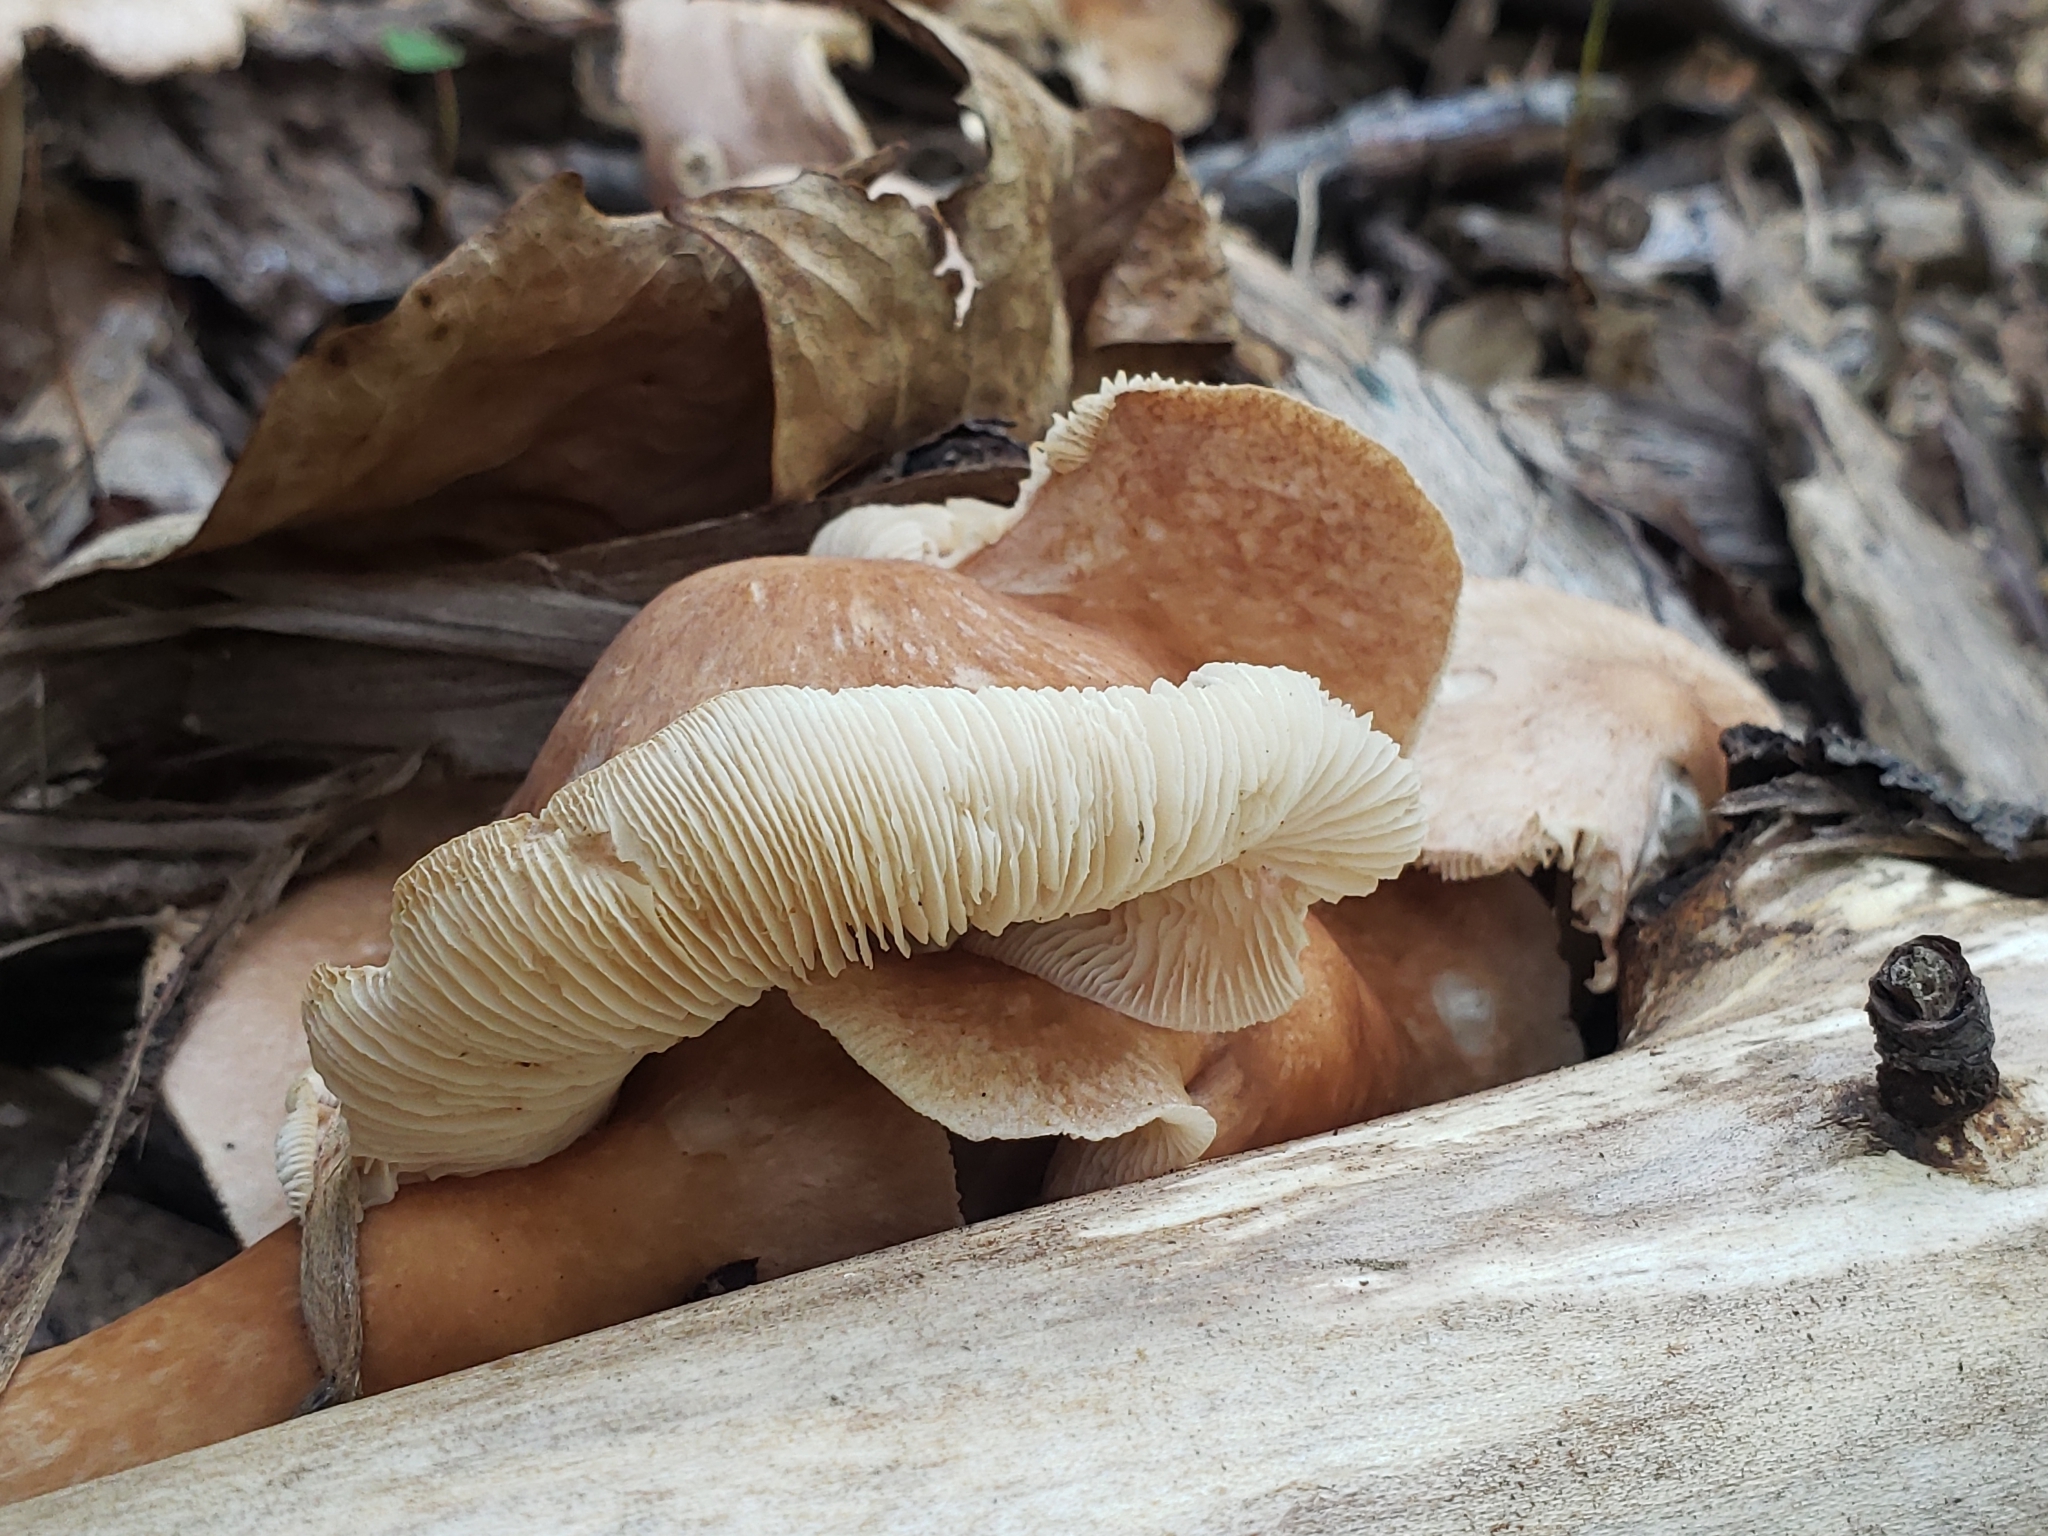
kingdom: Fungi
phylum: Basidiomycota
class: Agaricomycetes
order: Agaricales
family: Omphalotaceae
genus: Collybiopsis
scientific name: Collybiopsis luxurians
